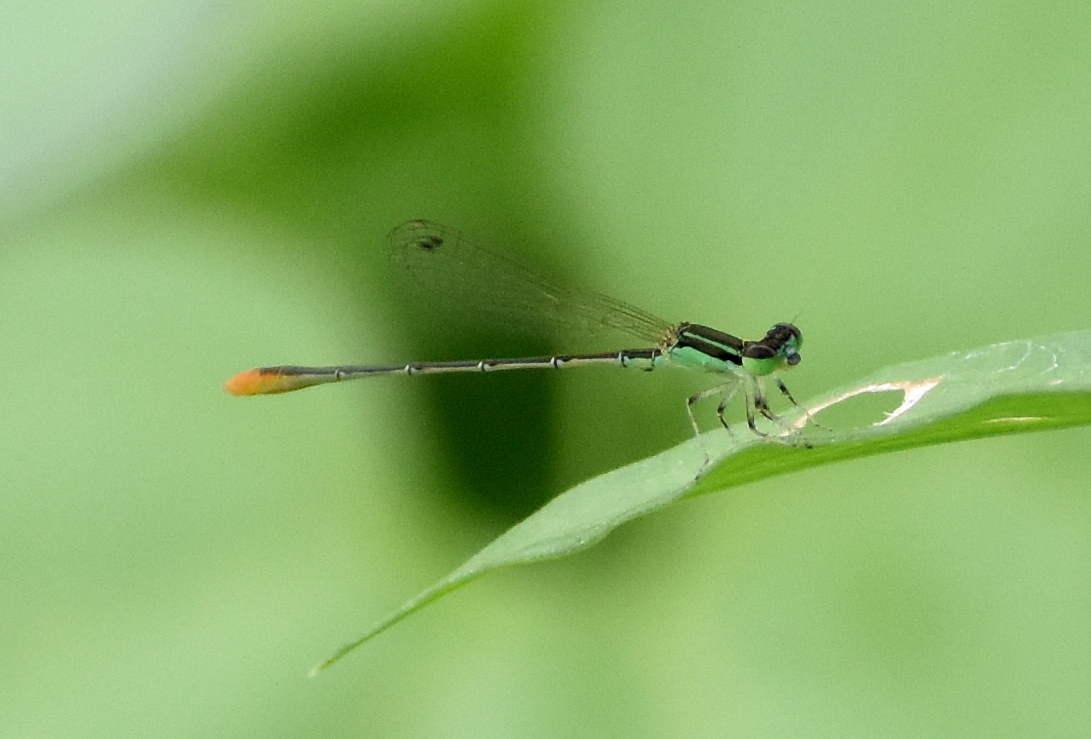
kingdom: Animalia
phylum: Arthropoda
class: Insecta
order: Odonata
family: Coenagrionidae
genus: Agriocnemis
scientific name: Agriocnemis pygmaea
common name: Pygmy wisp
